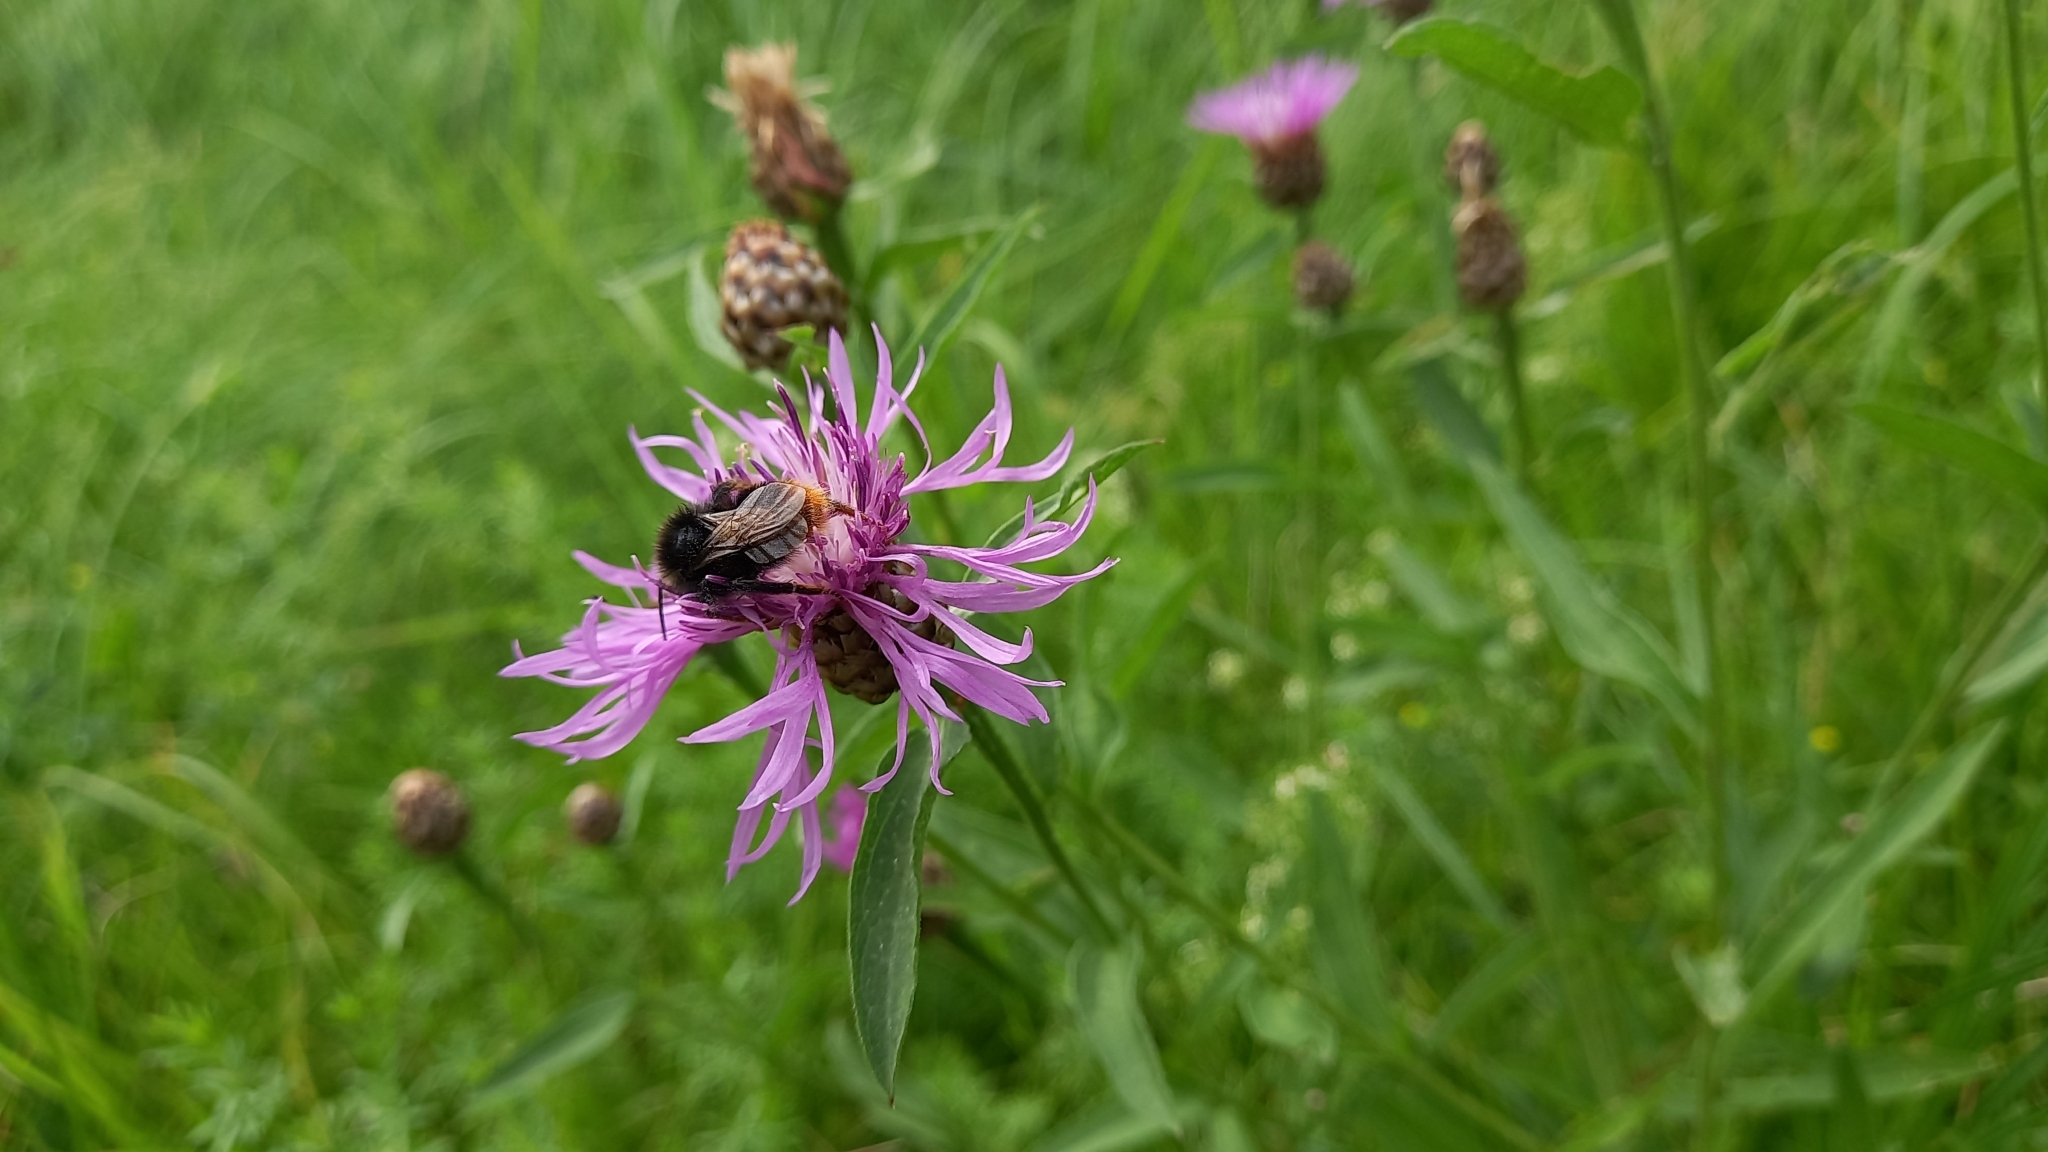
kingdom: Animalia
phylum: Arthropoda
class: Insecta
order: Hymenoptera
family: Apidae
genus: Bombus
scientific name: Bombus rupestris
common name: Hill cuckoo-bee
